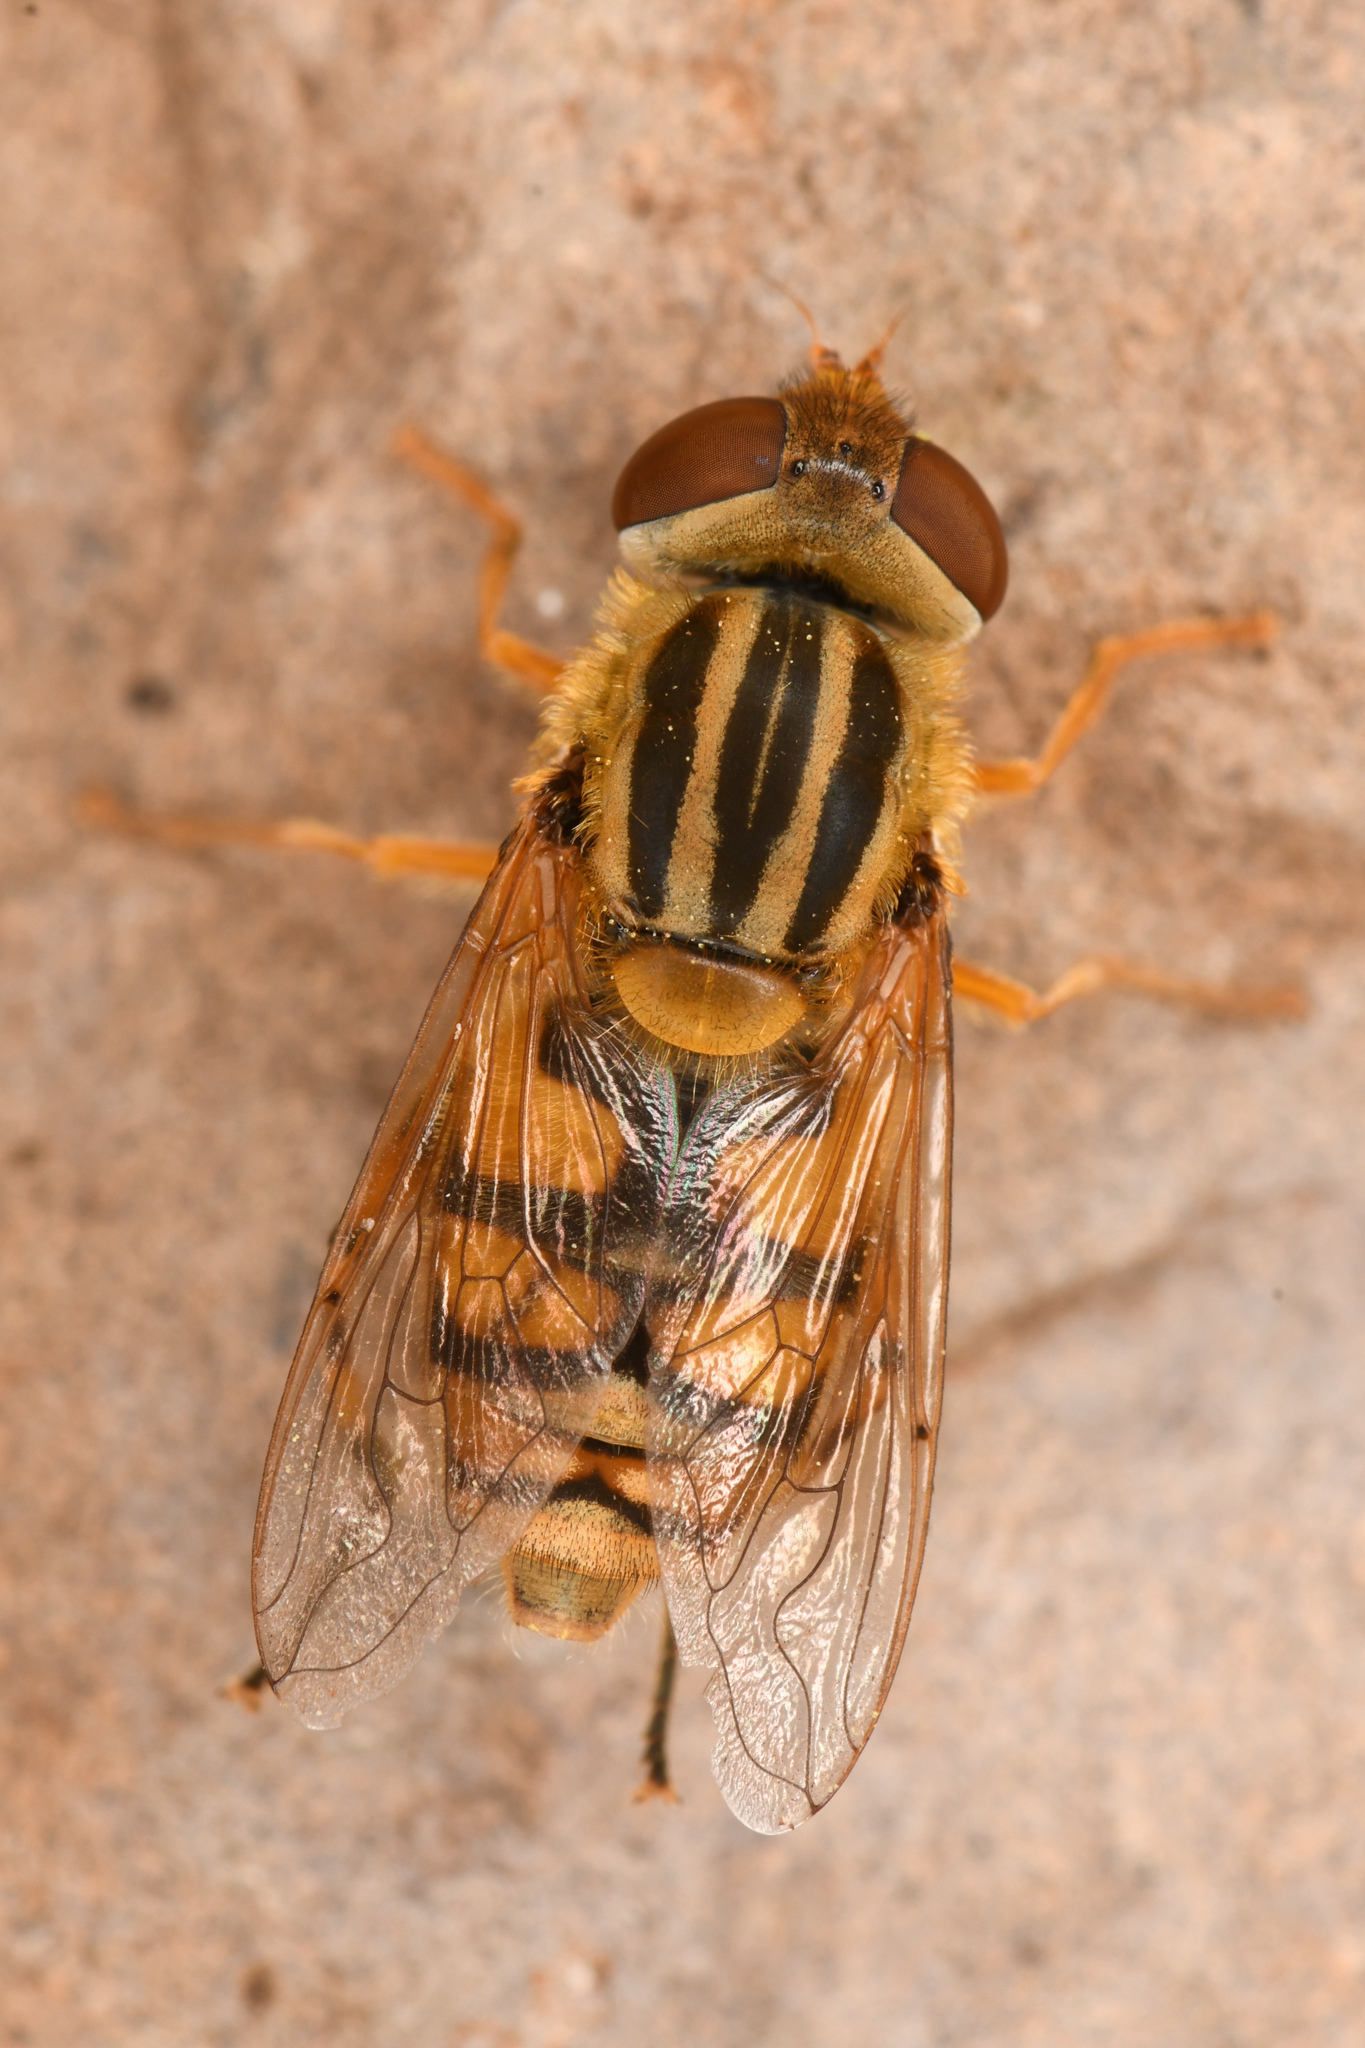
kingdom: Animalia
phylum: Arthropoda
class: Insecta
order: Diptera
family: Syrphidae
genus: Parhelophilus
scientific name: Parhelophilus laetus
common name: Common bog fly
